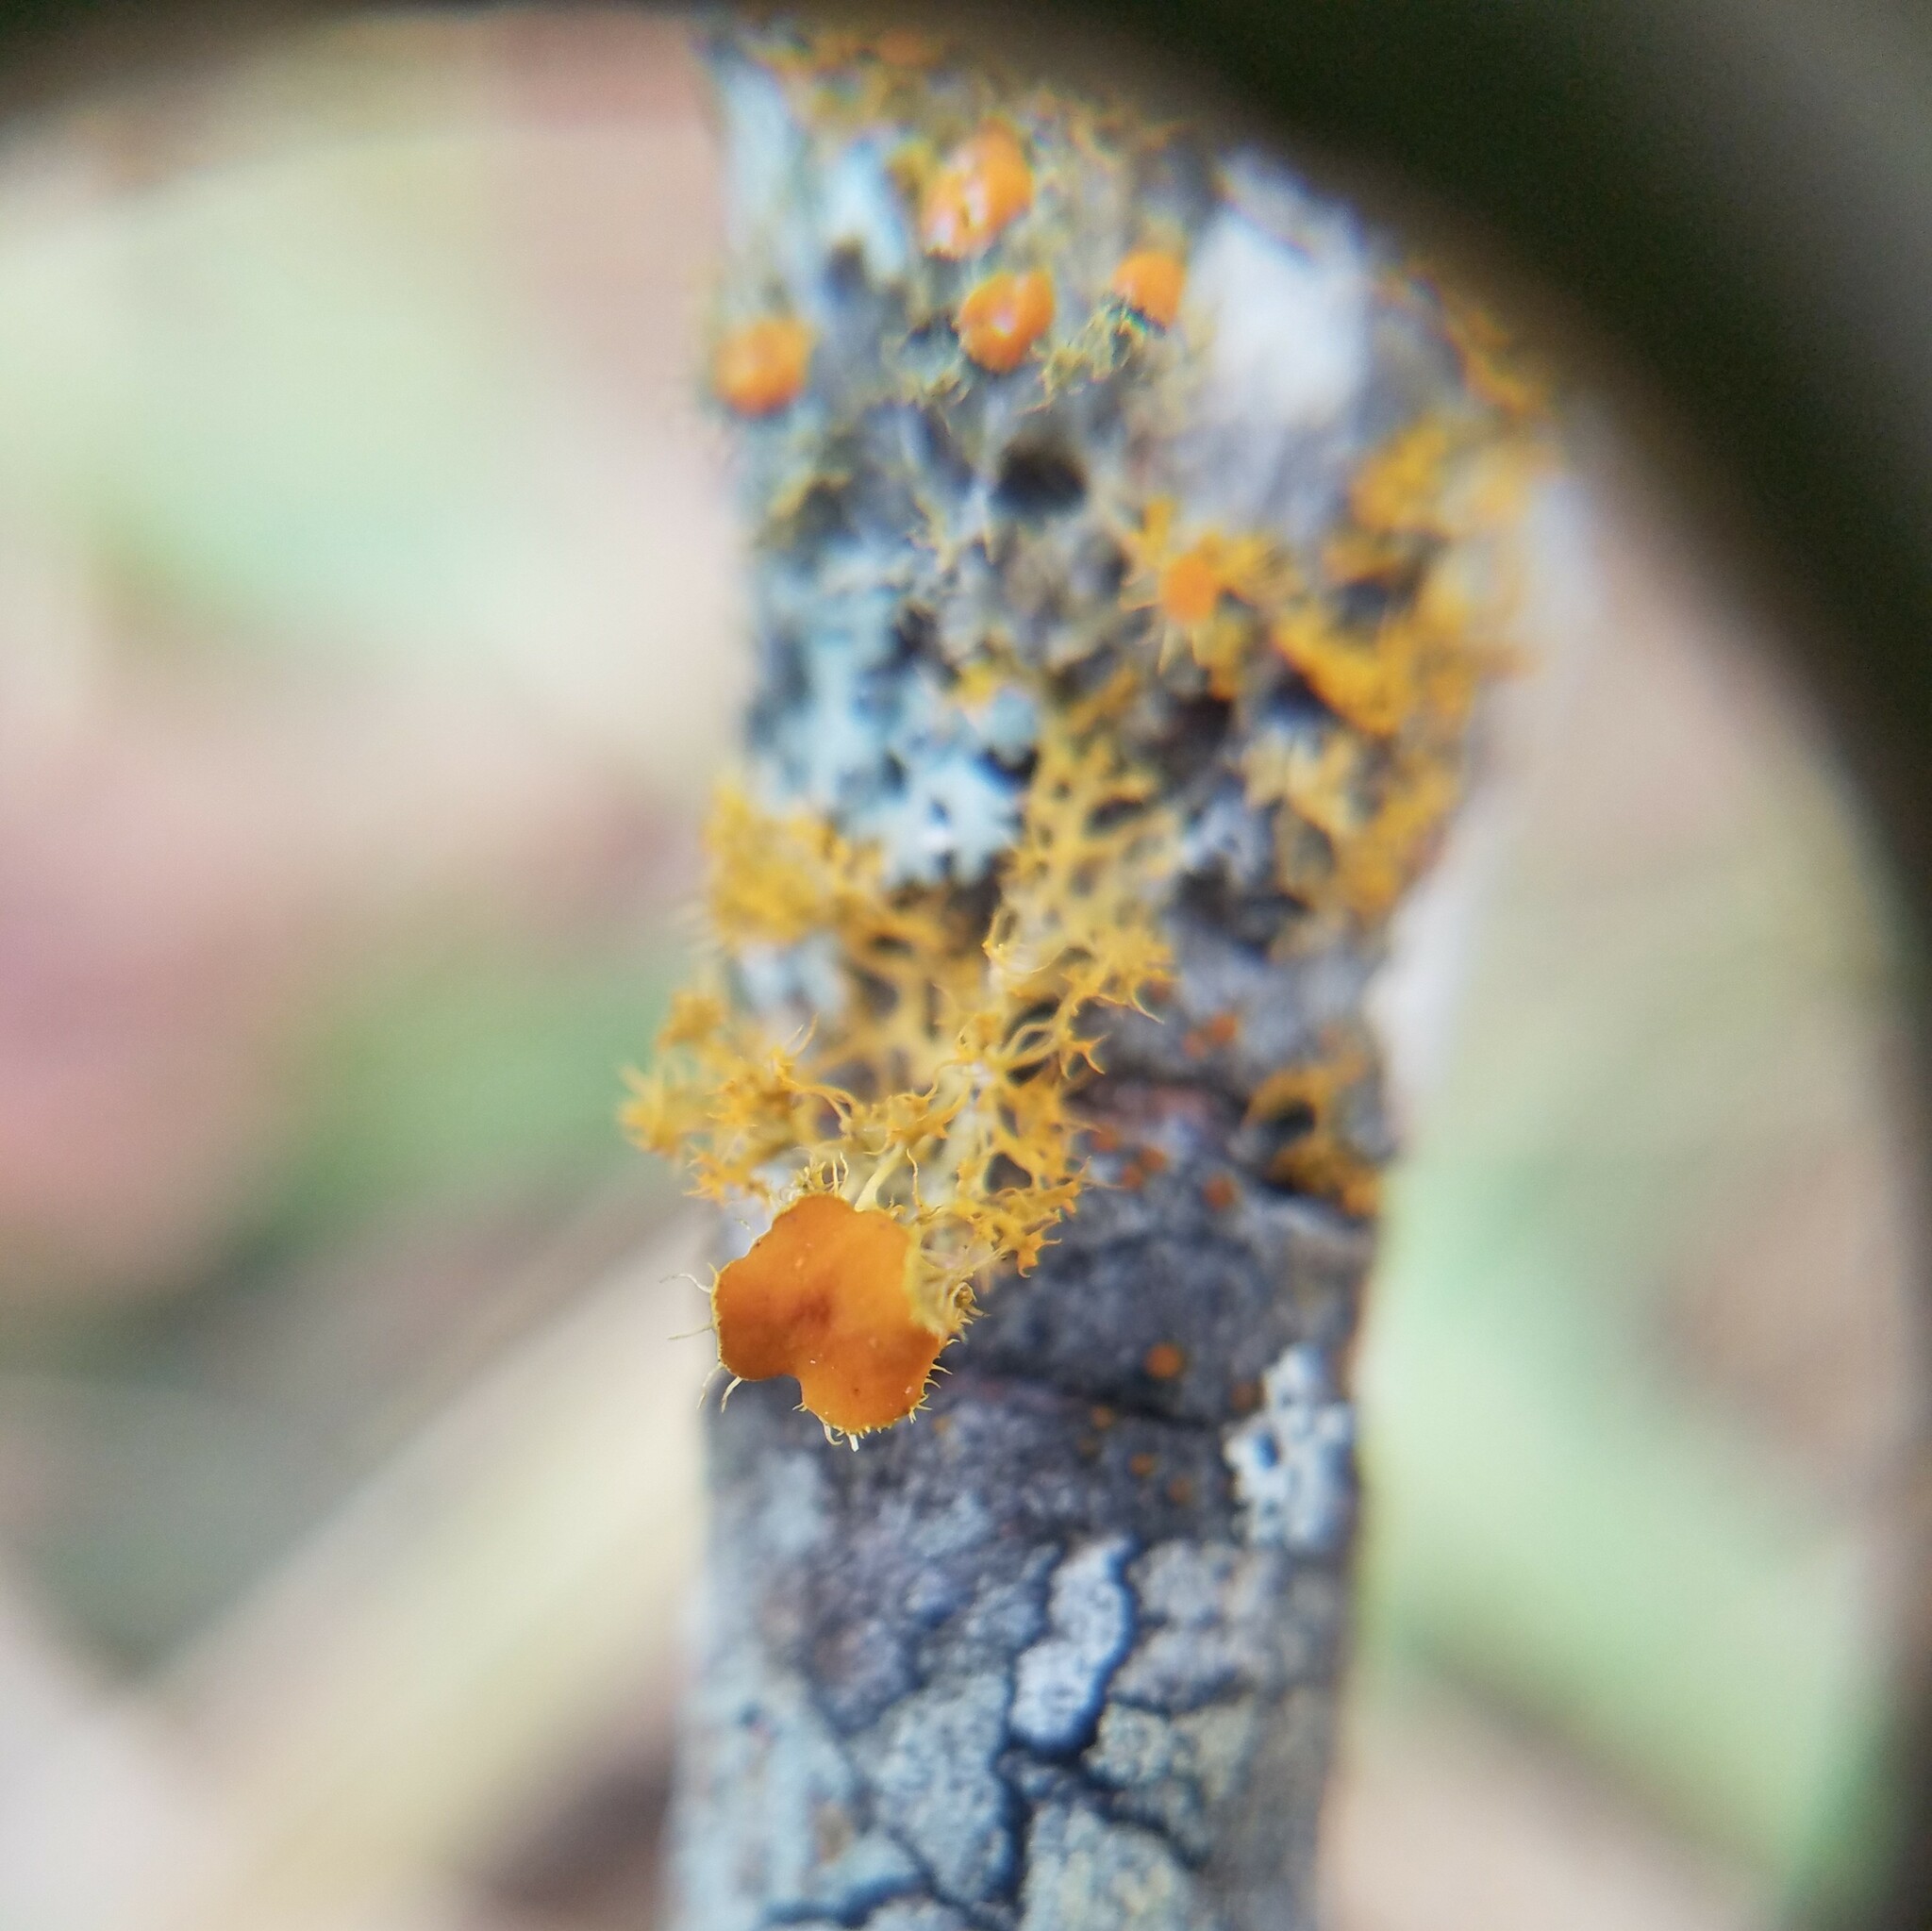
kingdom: Fungi
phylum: Ascomycota
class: Lecanoromycetes
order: Teloschistales
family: Teloschistaceae
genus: Niorma
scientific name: Niorma chrysophthalma
